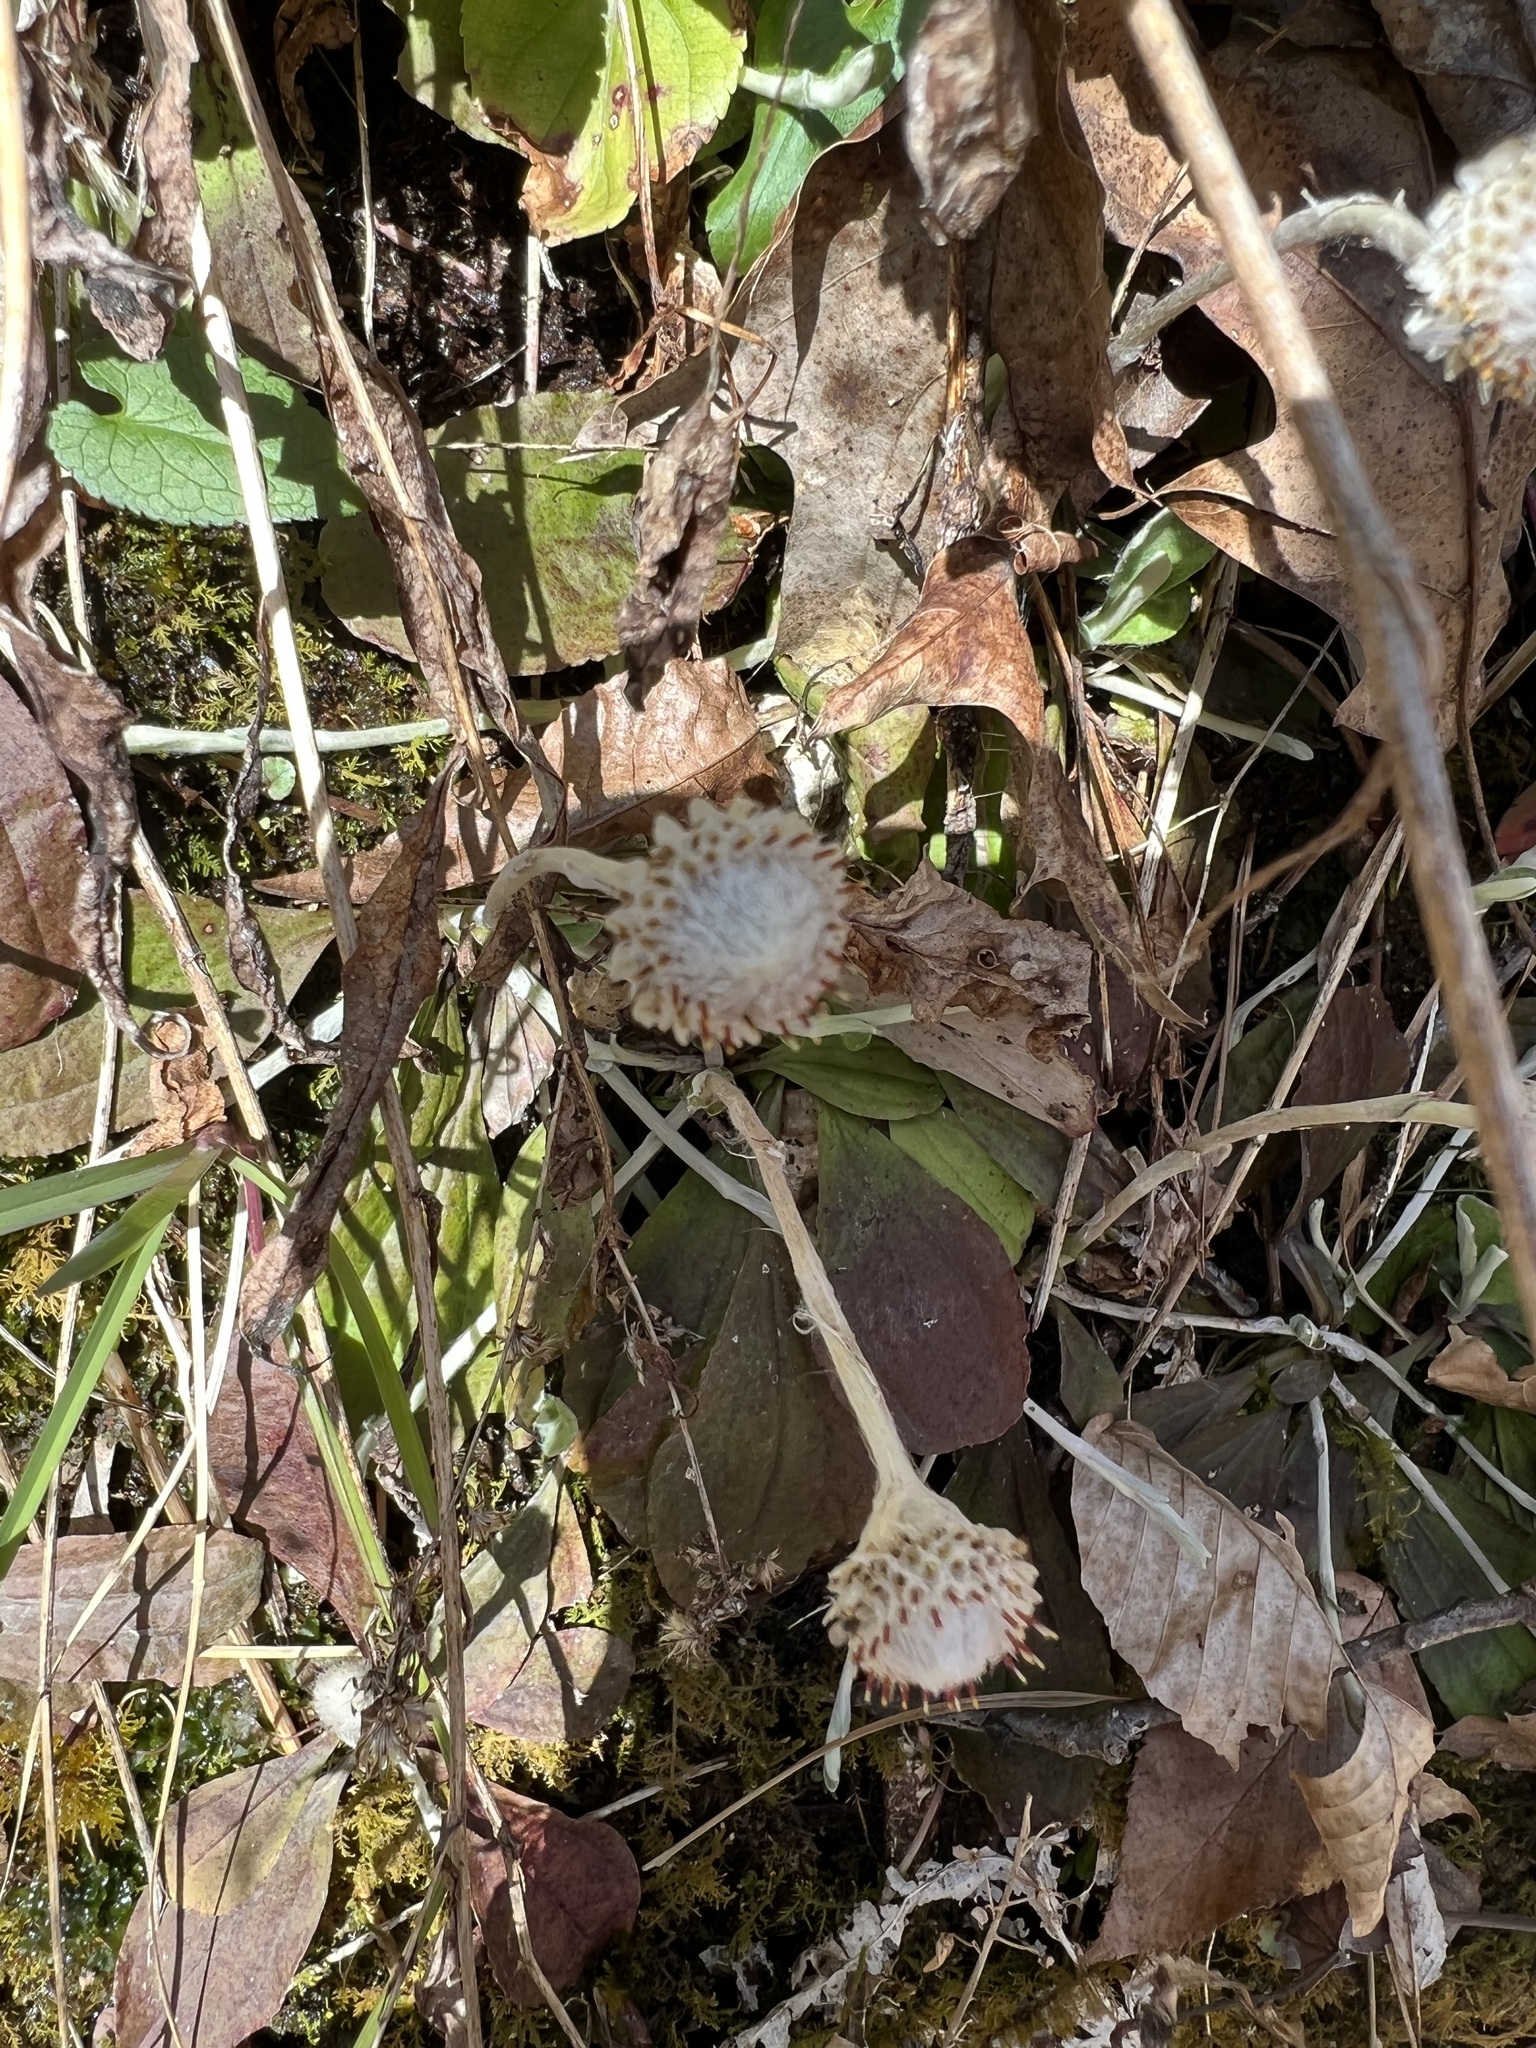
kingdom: Plantae
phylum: Tracheophyta
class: Magnoliopsida
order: Asterales
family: Asteraceae
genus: Antennaria
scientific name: Antennaria solitaria
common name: Single-head pussytoes
